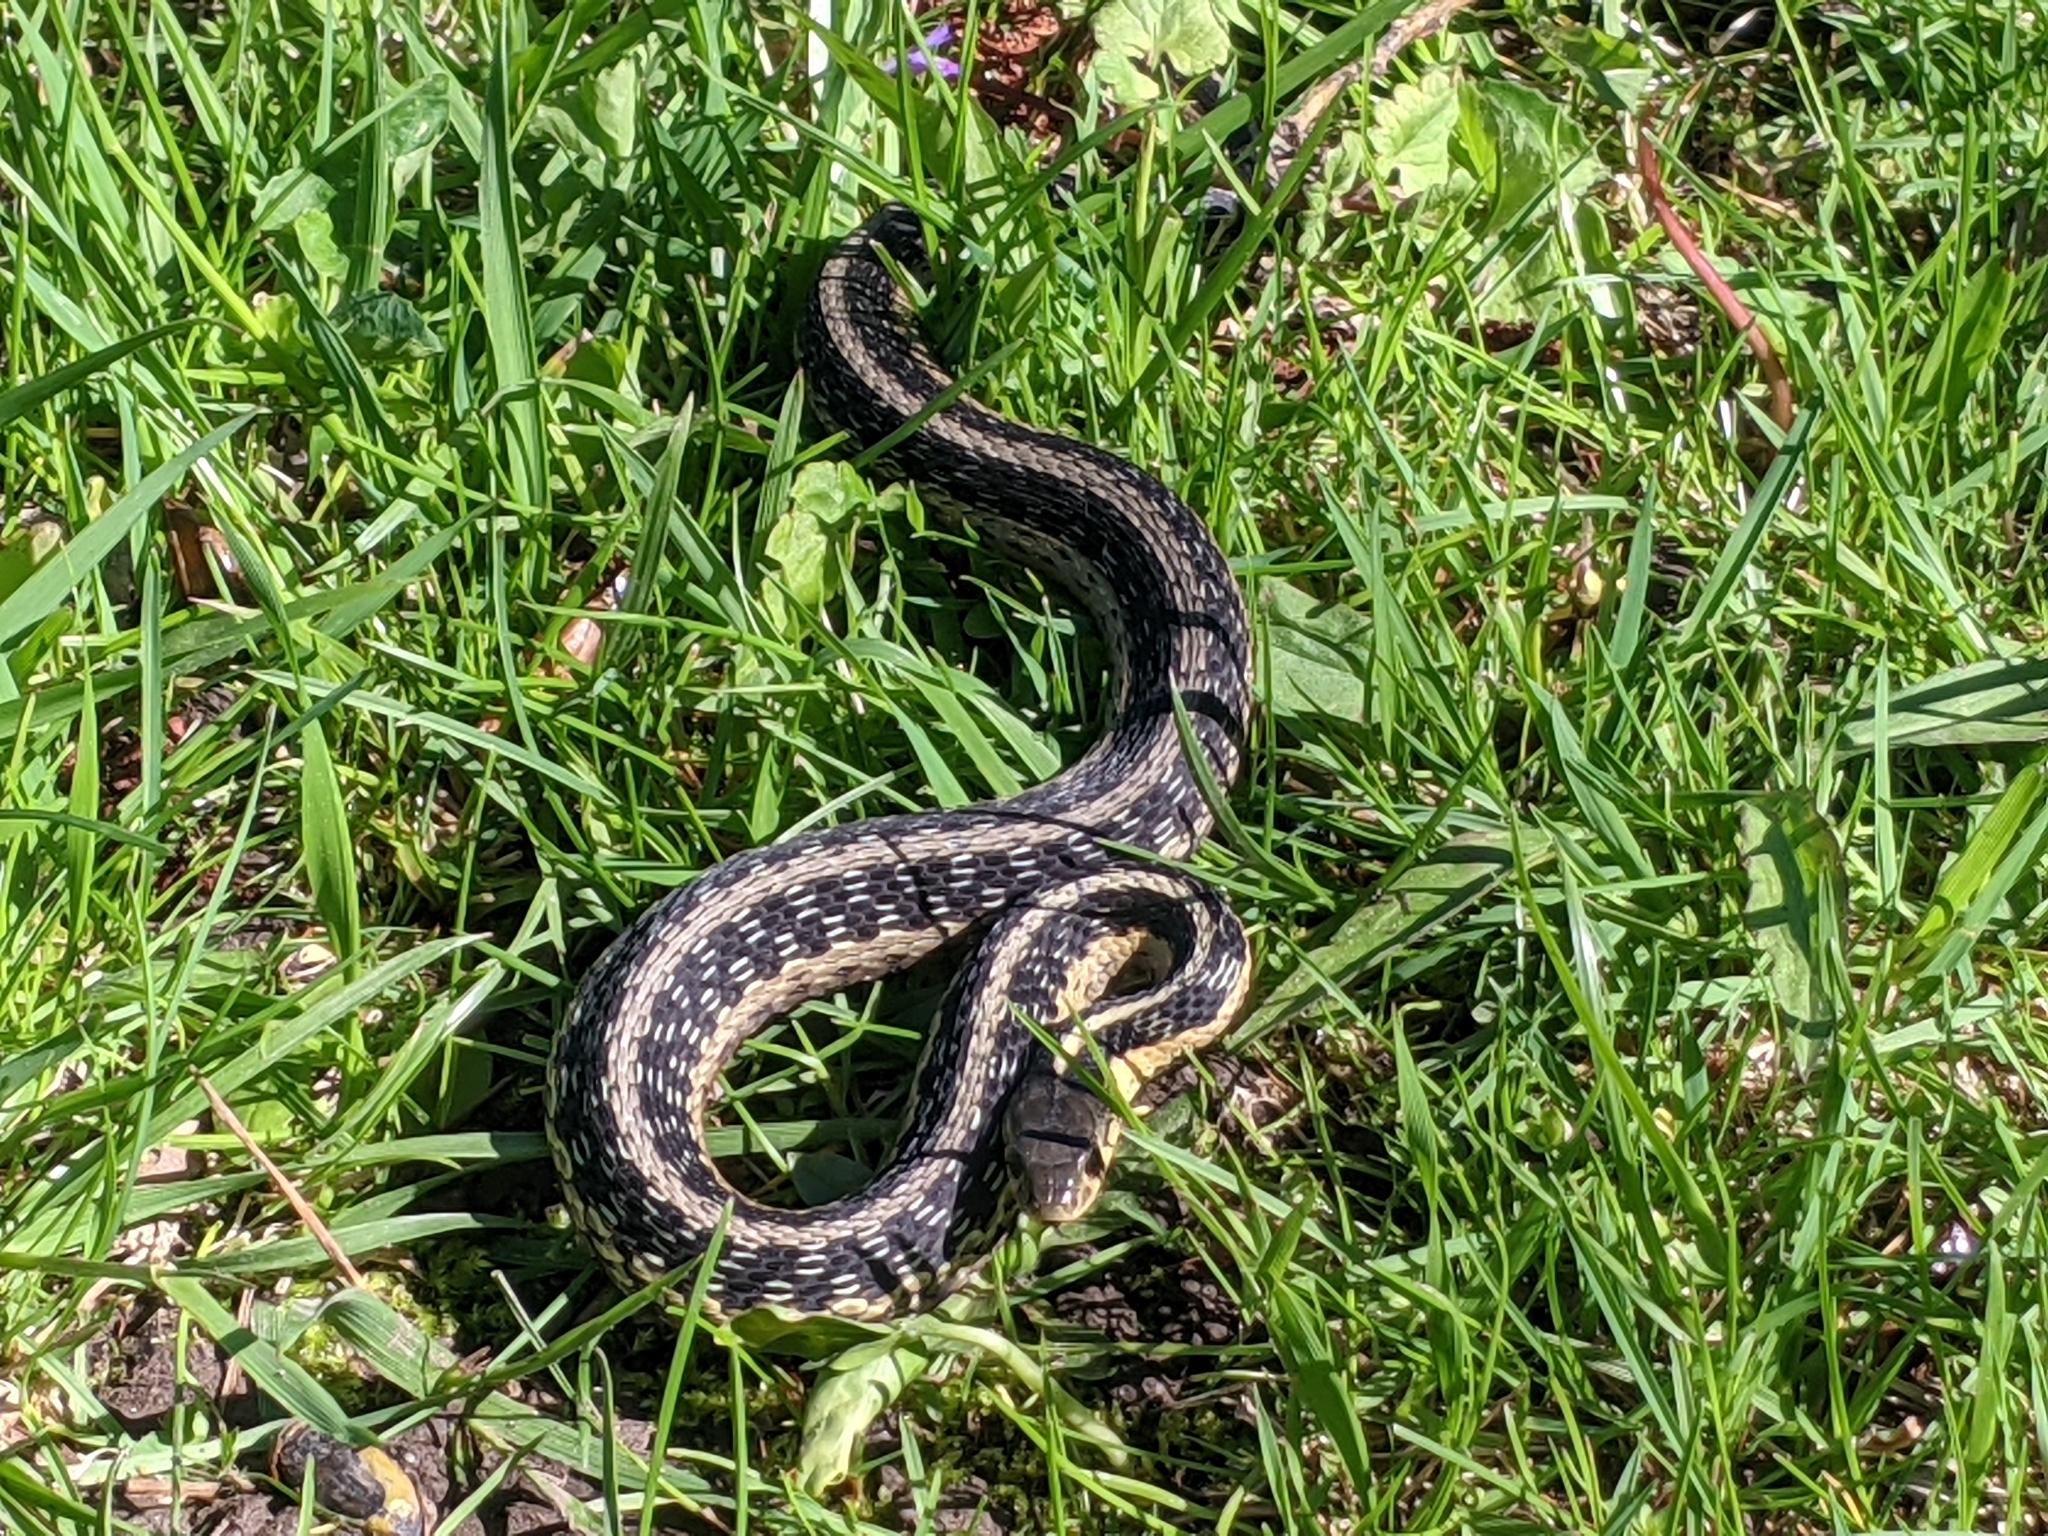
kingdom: Animalia
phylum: Chordata
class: Squamata
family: Colubridae
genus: Thamnophis
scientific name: Thamnophis sirtalis
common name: Common garter snake
